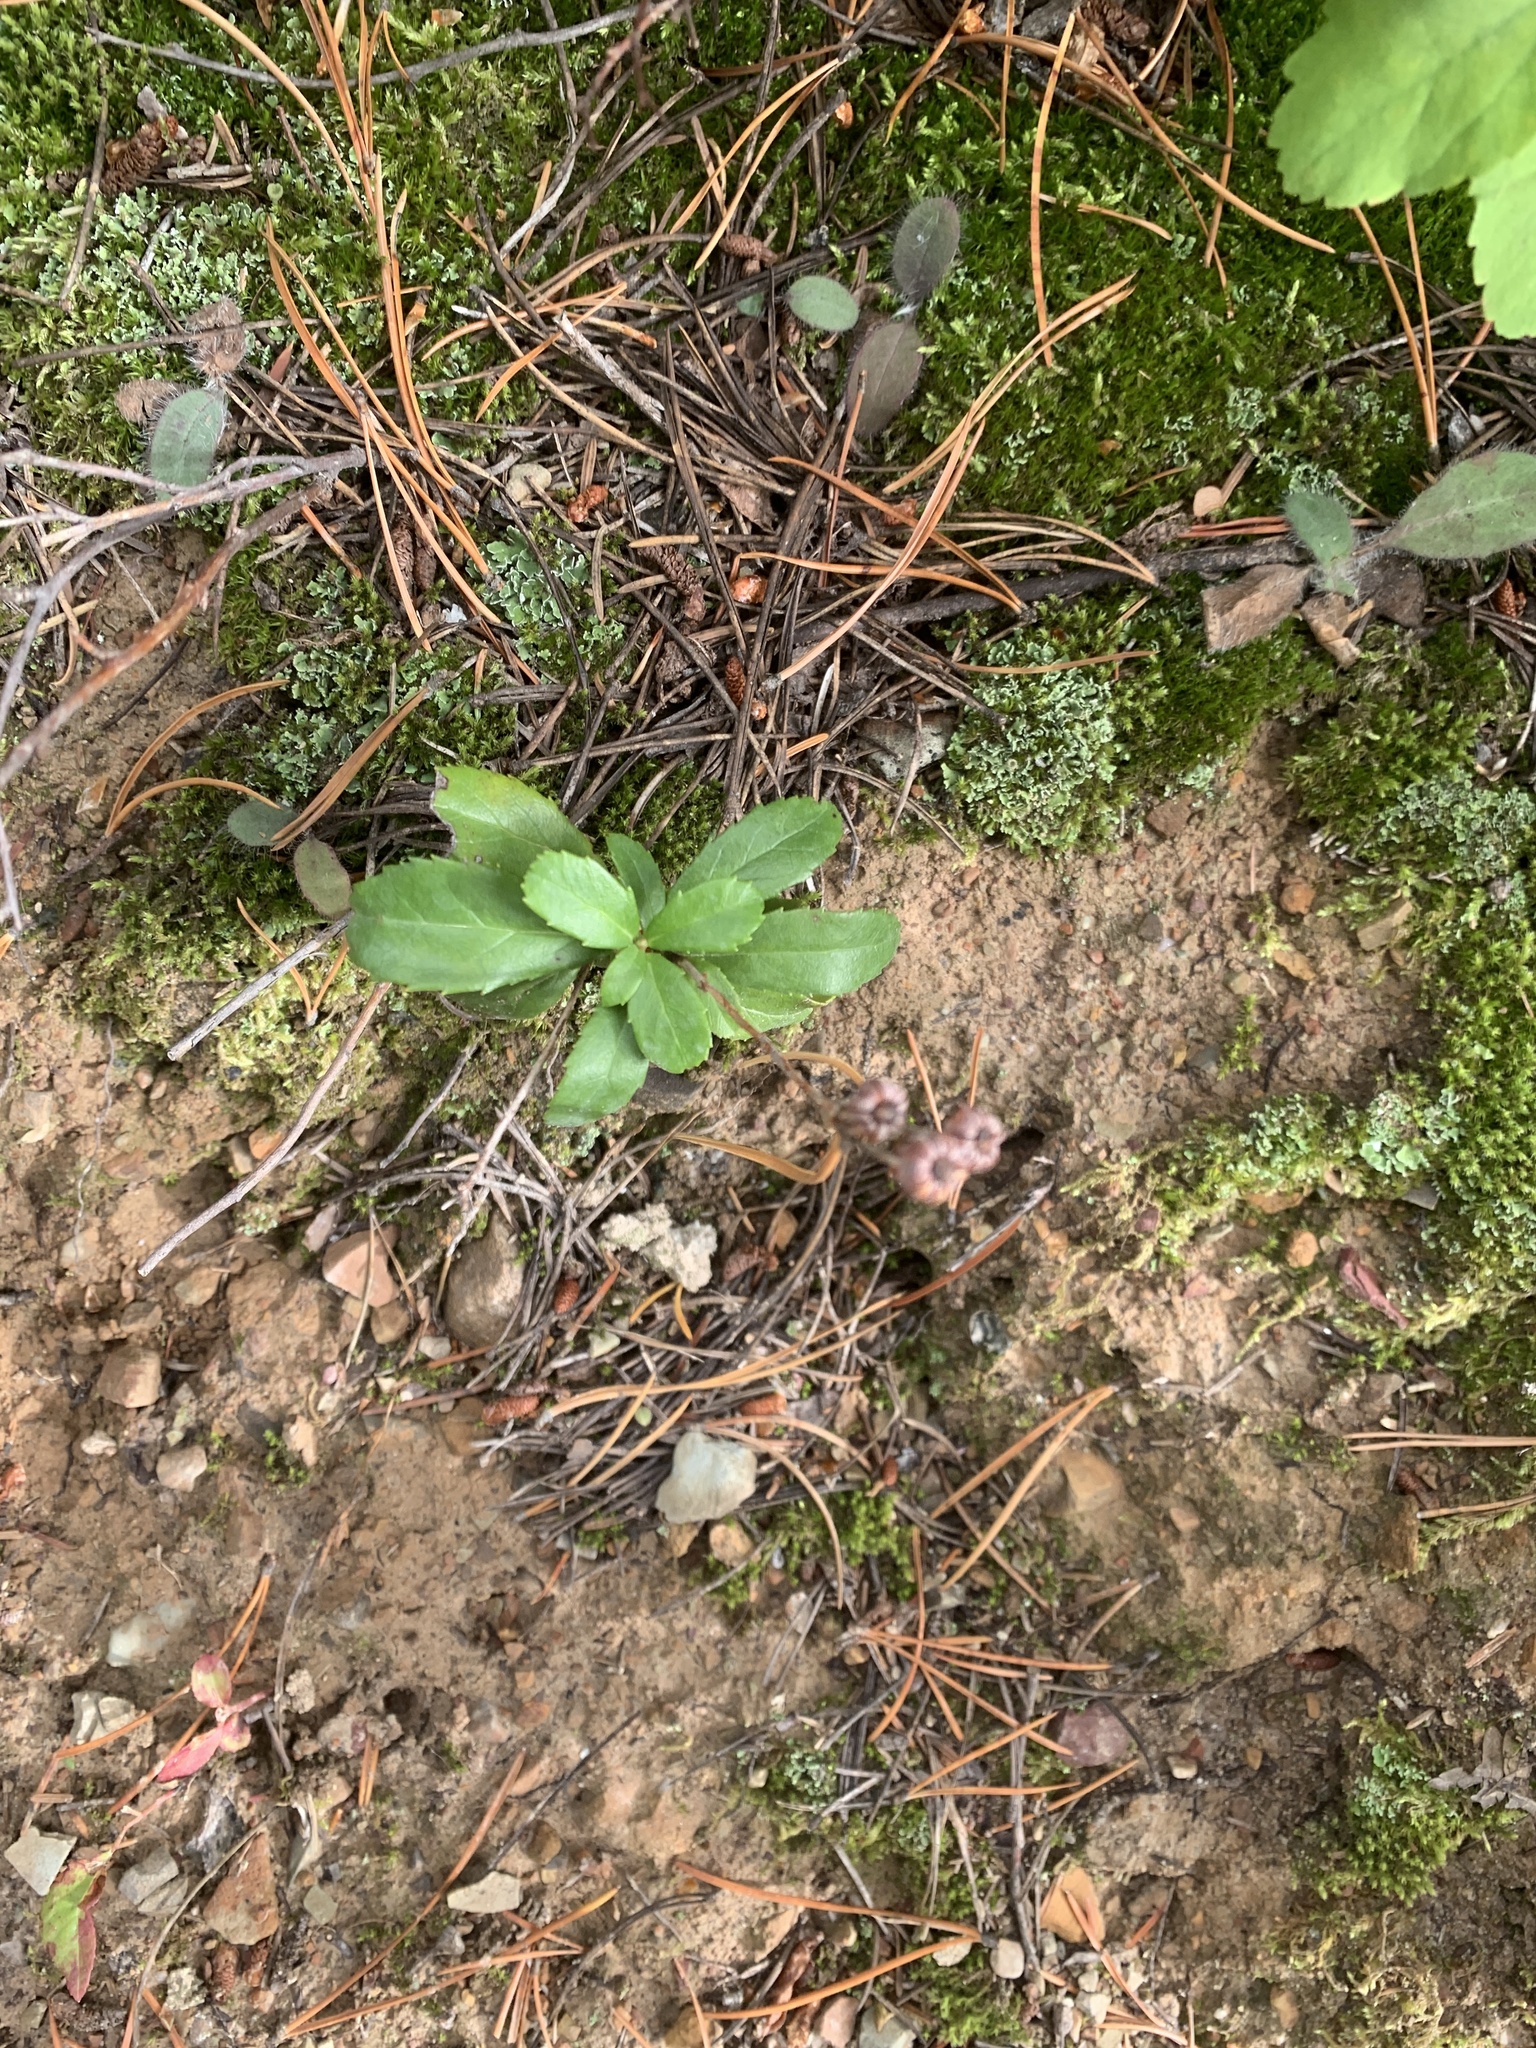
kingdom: Plantae
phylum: Tracheophyta
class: Magnoliopsida
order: Ericales
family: Ericaceae
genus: Chimaphila
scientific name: Chimaphila umbellata
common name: Pipsissewa
